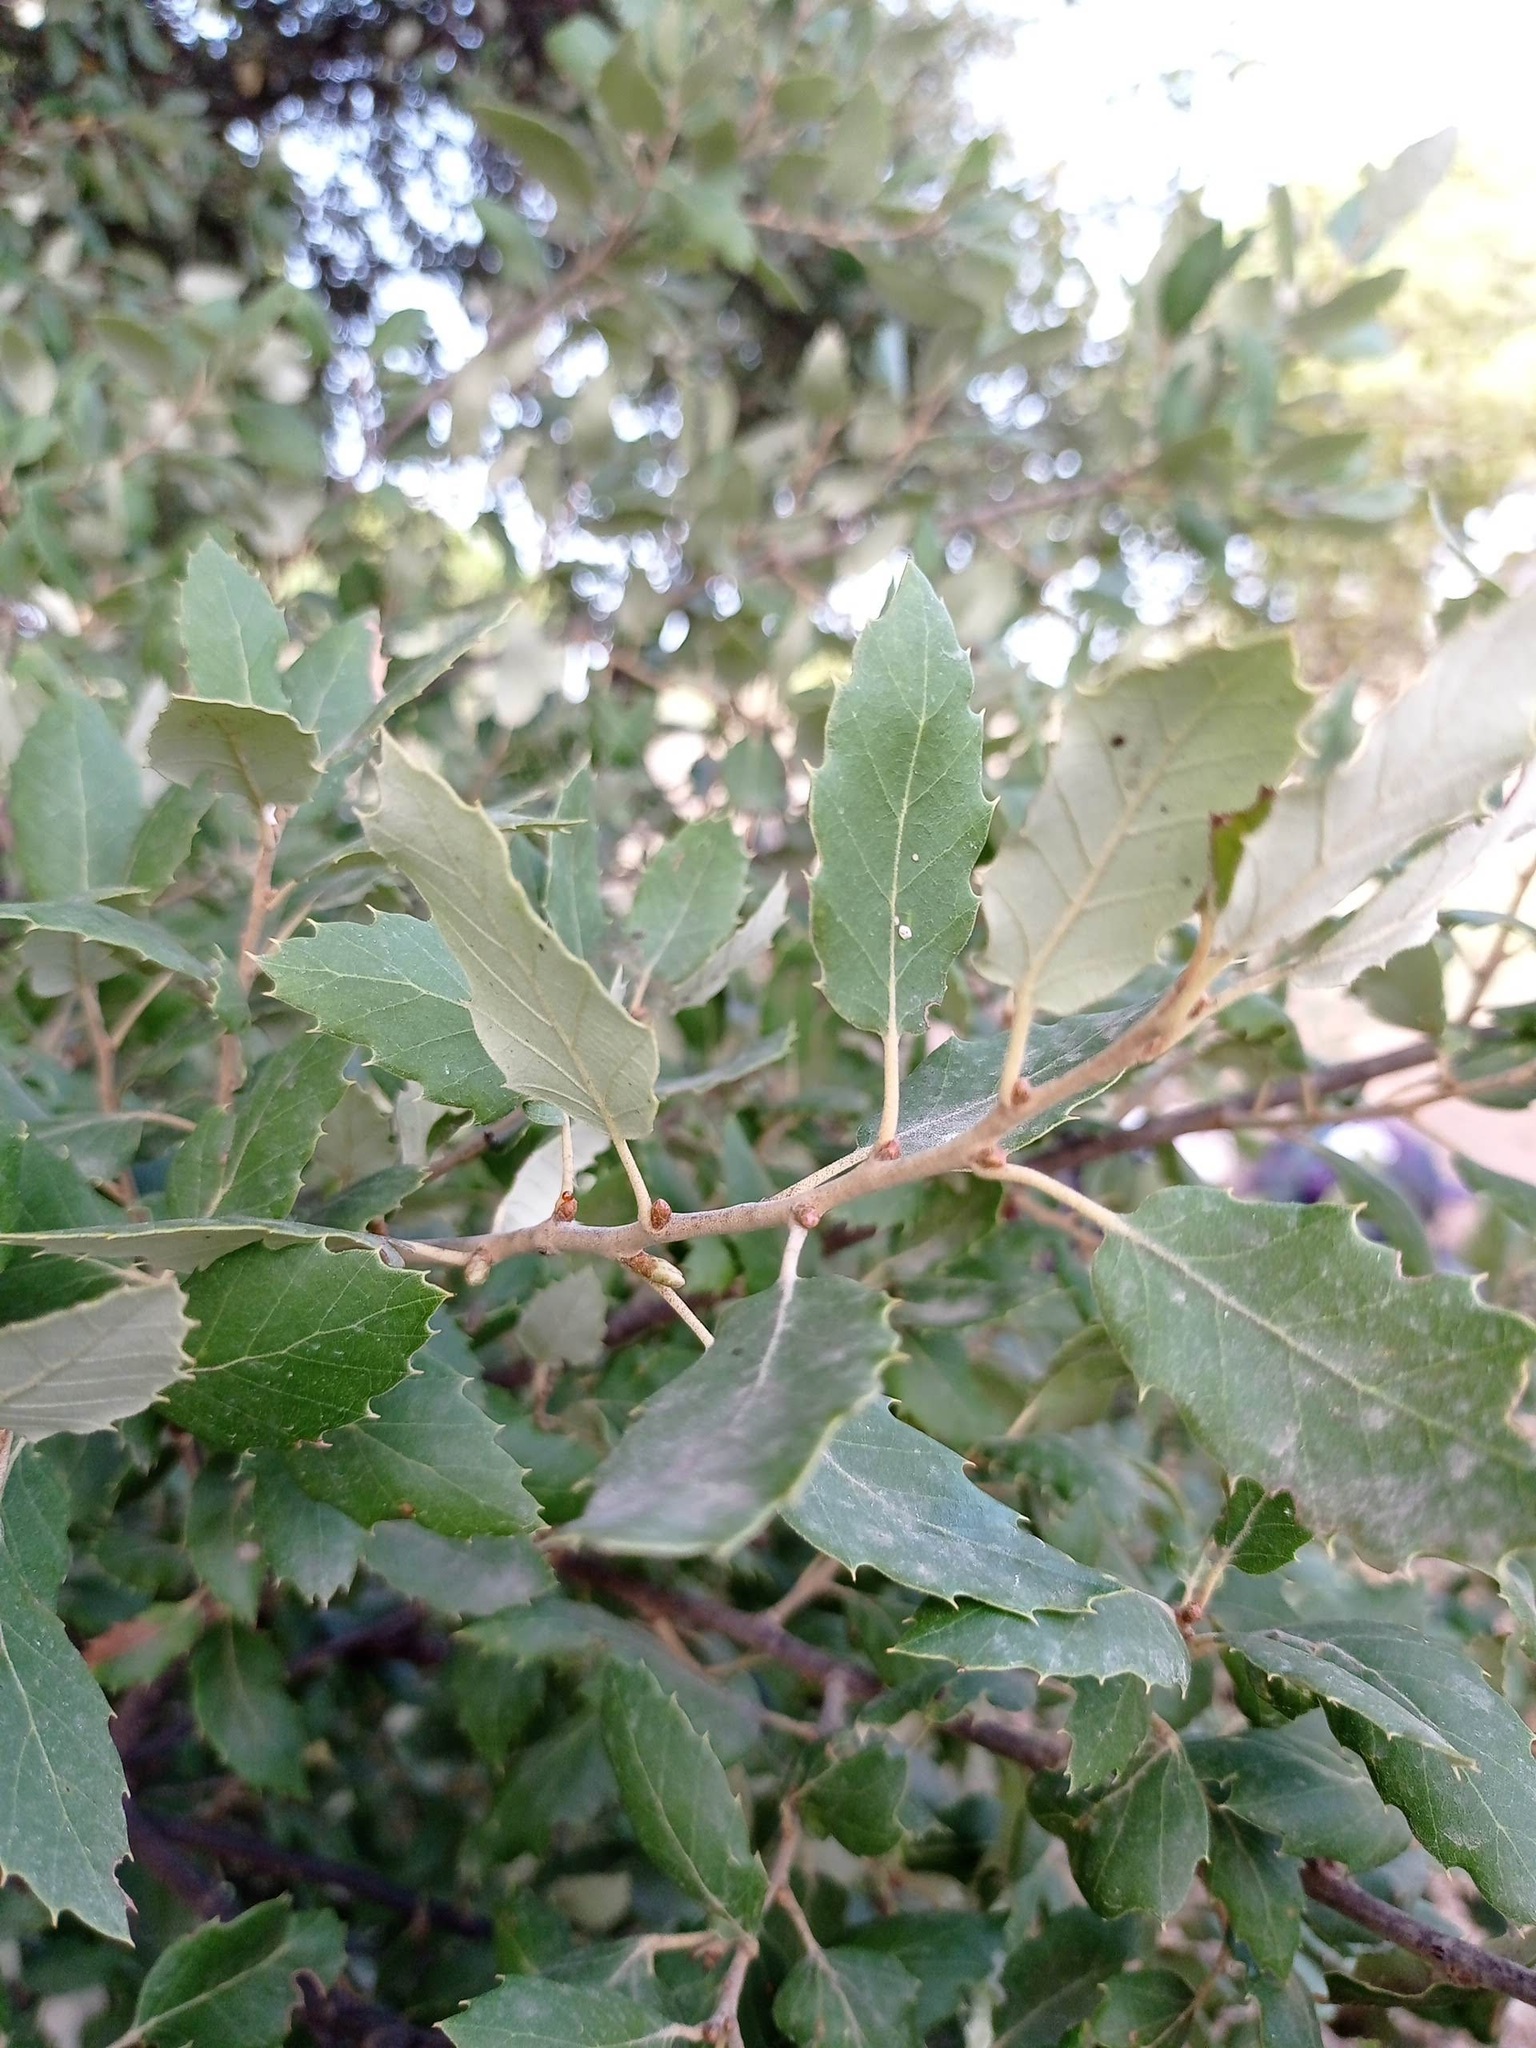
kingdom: Plantae
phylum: Tracheophyta
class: Magnoliopsida
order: Fagales
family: Fagaceae
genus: Quercus
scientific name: Quercus faginea
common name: Gall oak tree
